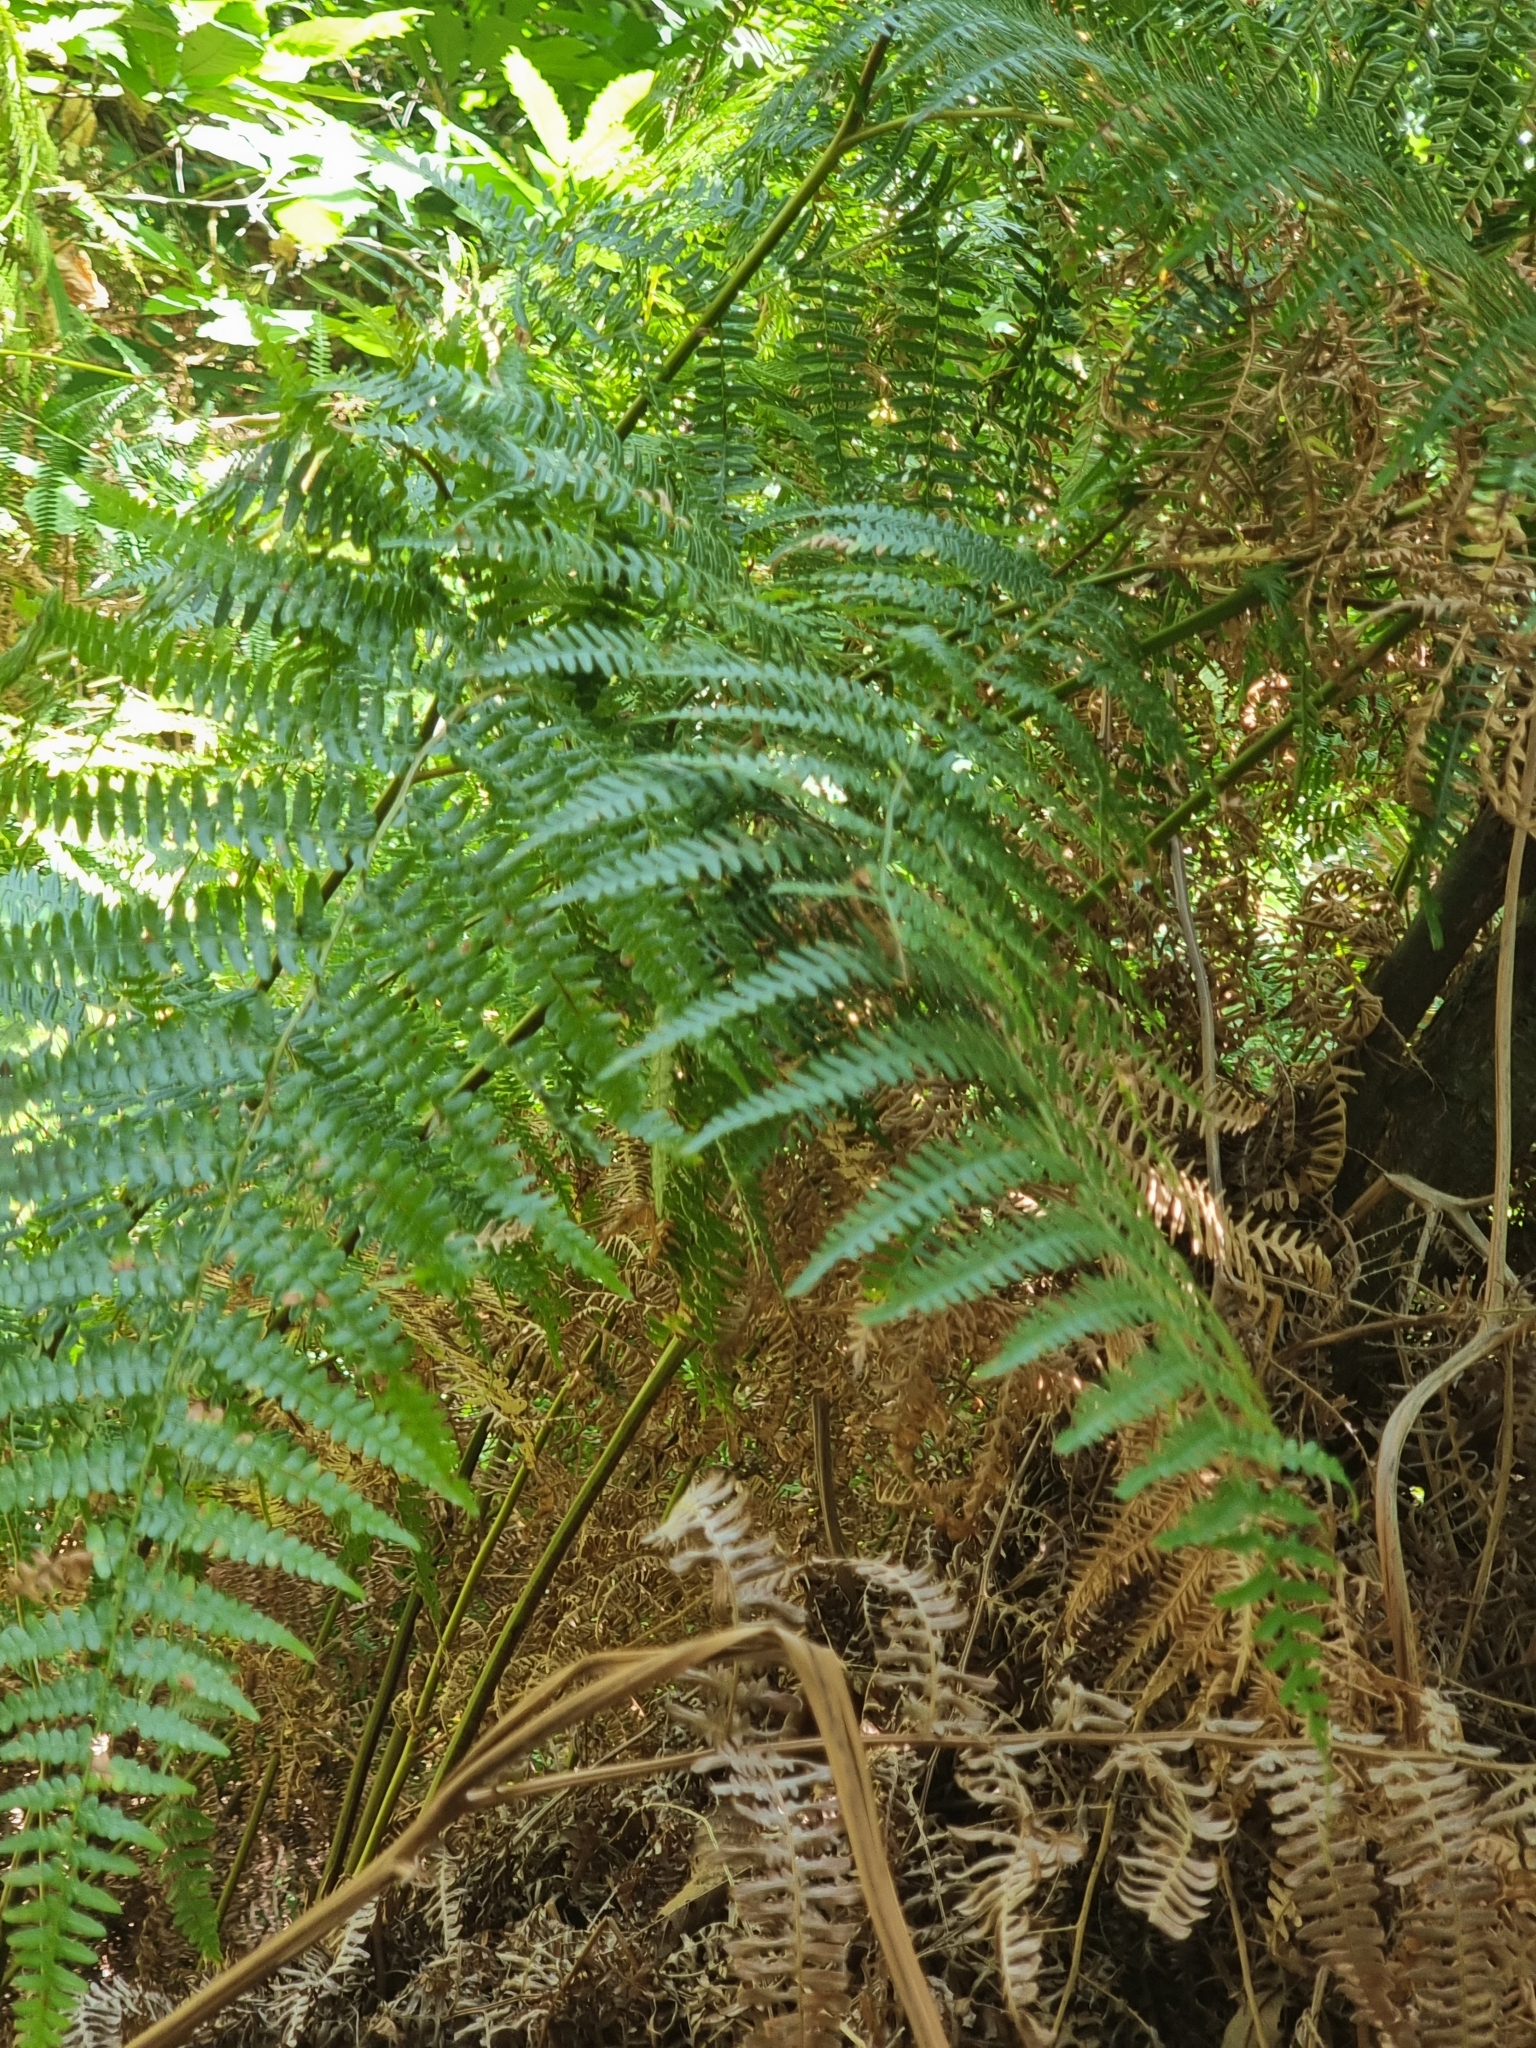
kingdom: Plantae
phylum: Tracheophyta
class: Polypodiopsida
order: Polypodiales
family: Dennstaedtiaceae
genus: Pteridium
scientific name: Pteridium aquilinum
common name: Bracken
